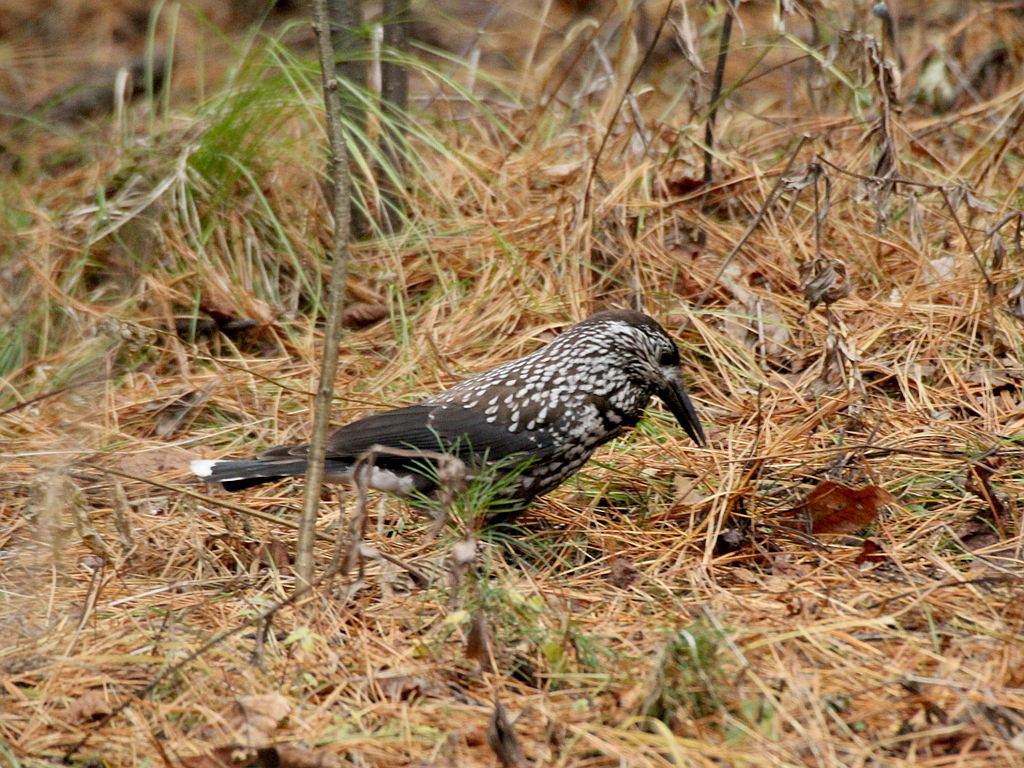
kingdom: Animalia
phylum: Chordata
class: Aves
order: Passeriformes
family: Corvidae
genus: Nucifraga
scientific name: Nucifraga caryocatactes
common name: Spotted nutcracker
